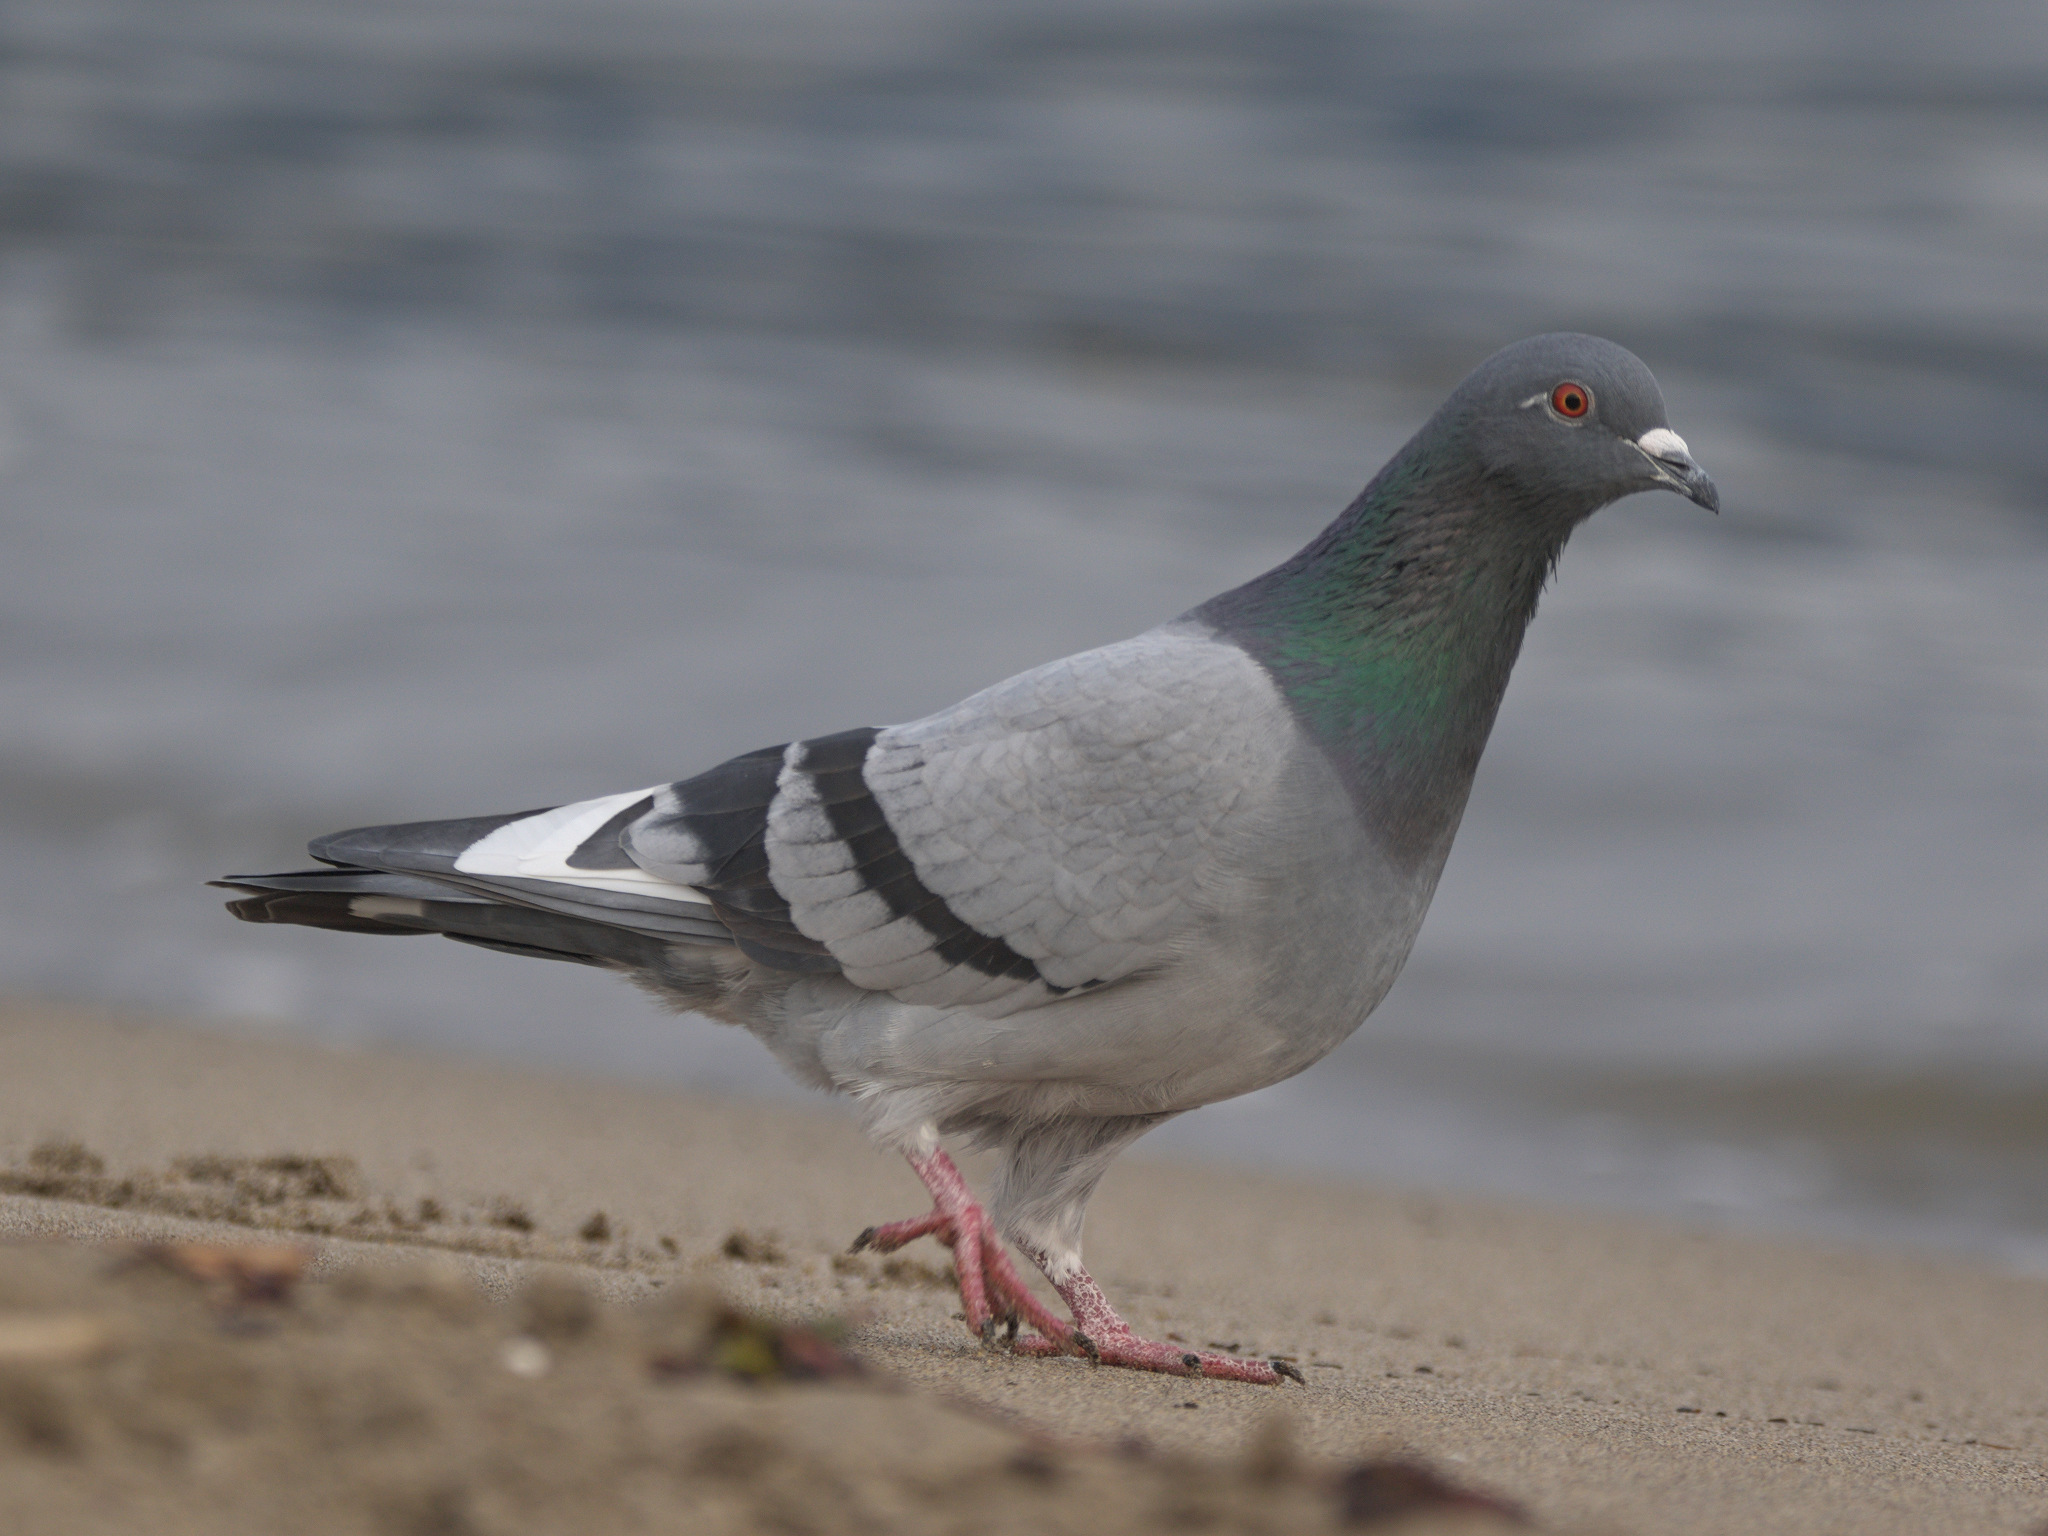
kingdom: Animalia
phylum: Chordata
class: Aves
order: Columbiformes
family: Columbidae
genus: Columba
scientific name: Columba livia
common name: Rock pigeon
